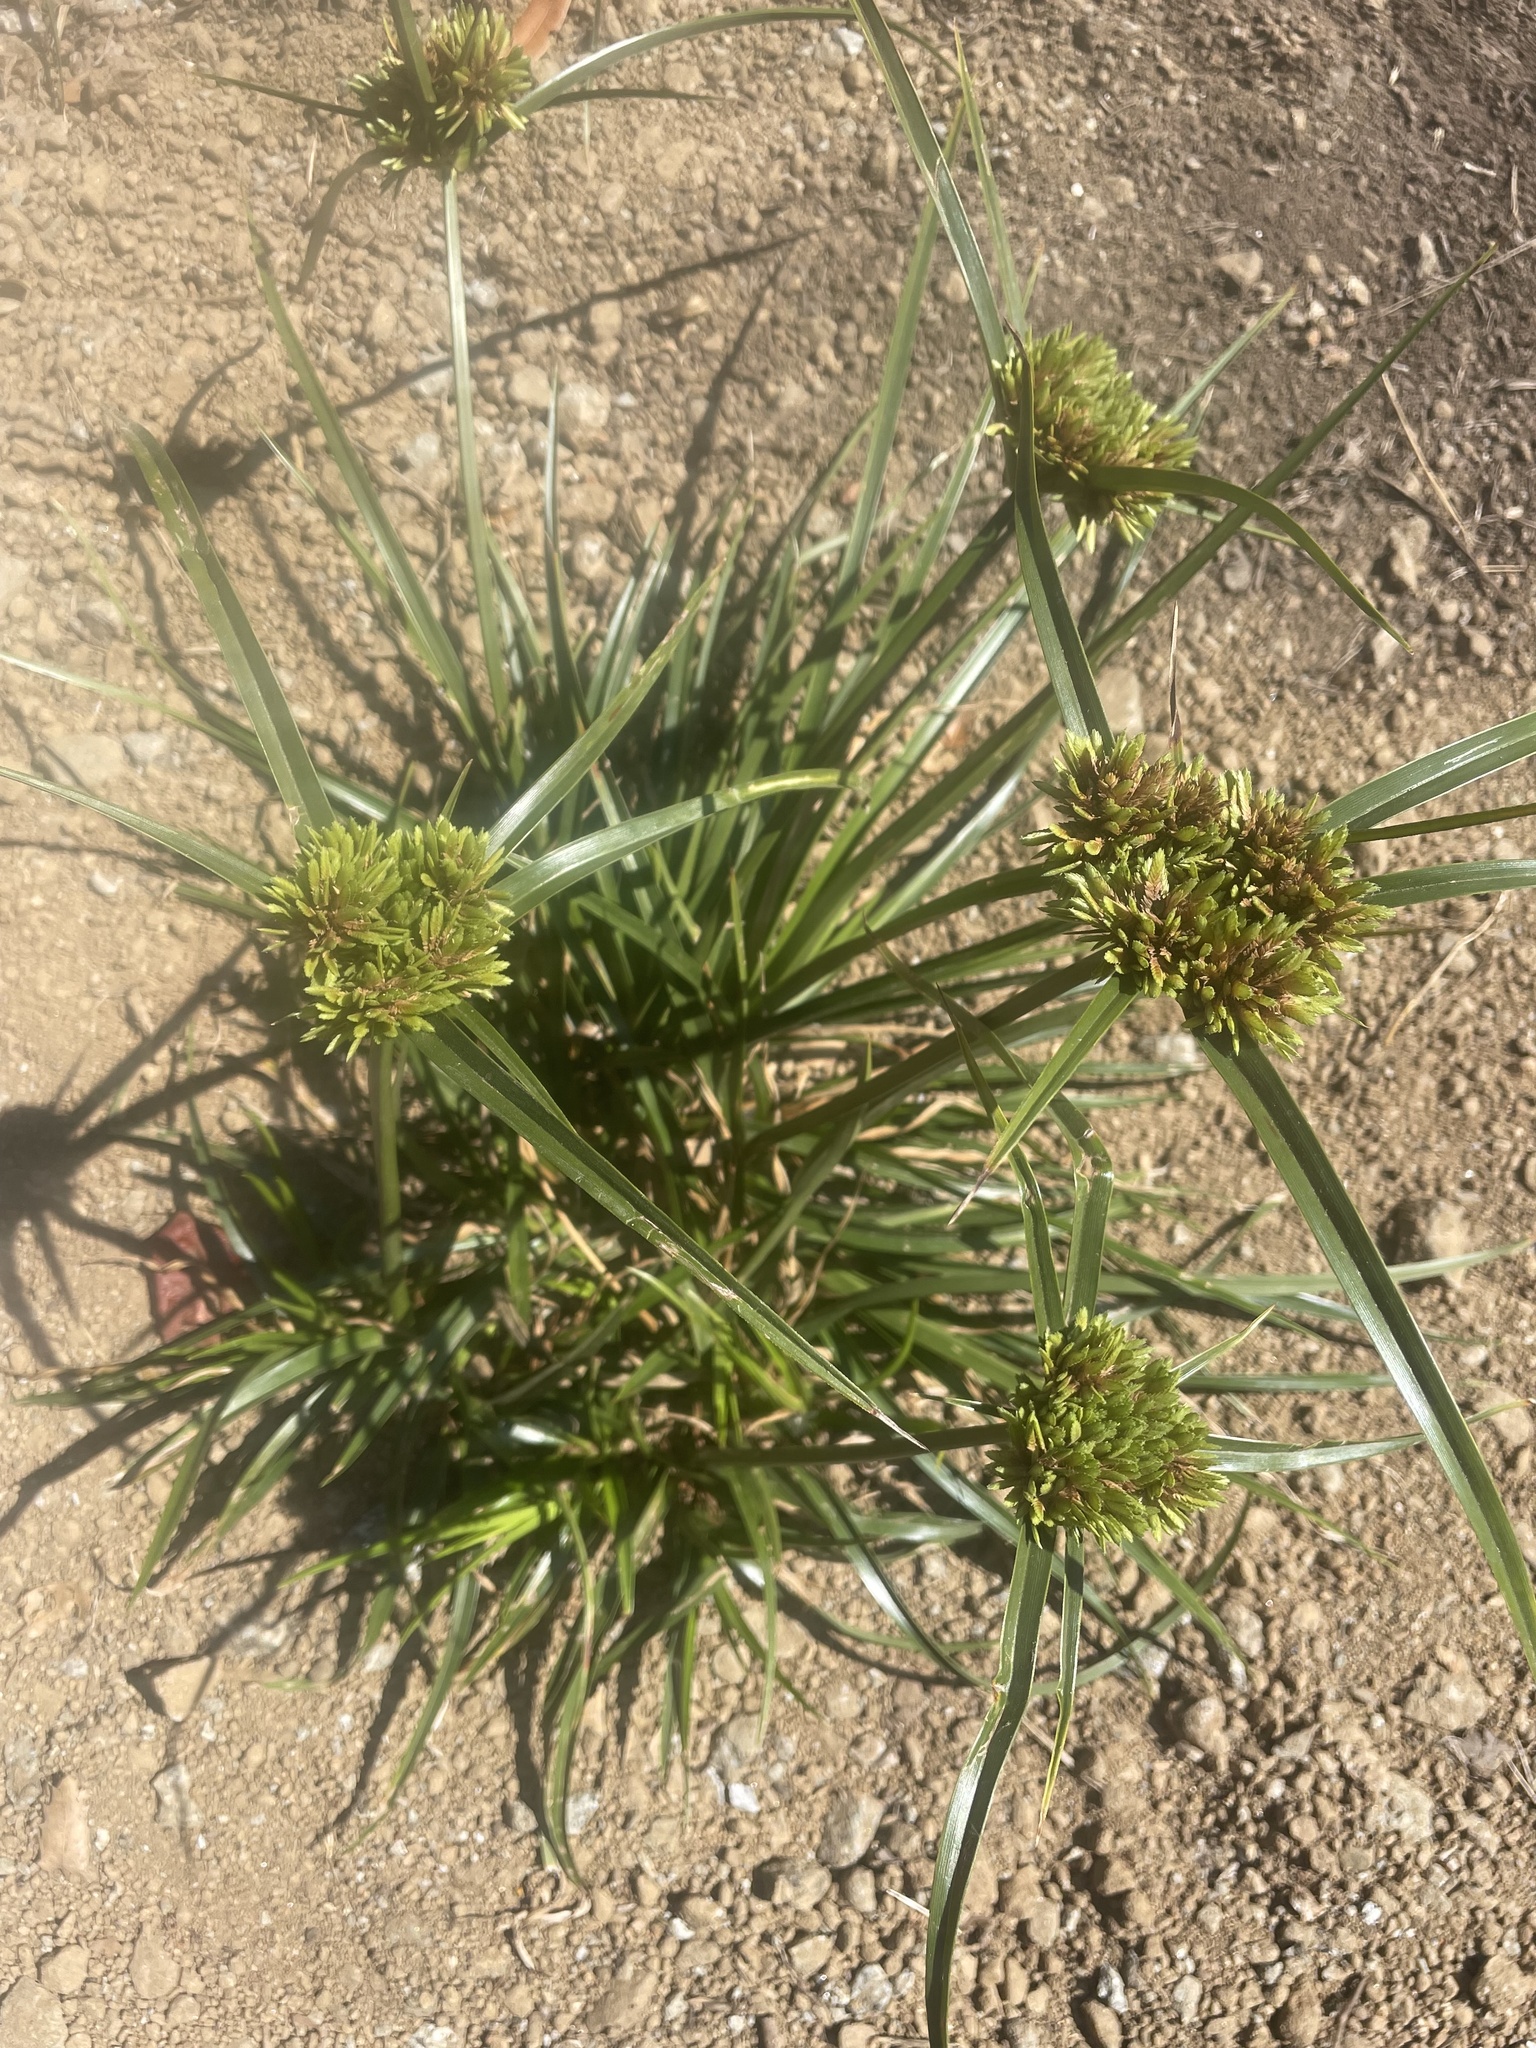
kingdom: Plantae
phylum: Tracheophyta
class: Liliopsida
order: Poales
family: Cyperaceae
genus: Cyperus
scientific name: Cyperus eragrostis
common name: Tall flatsedge
